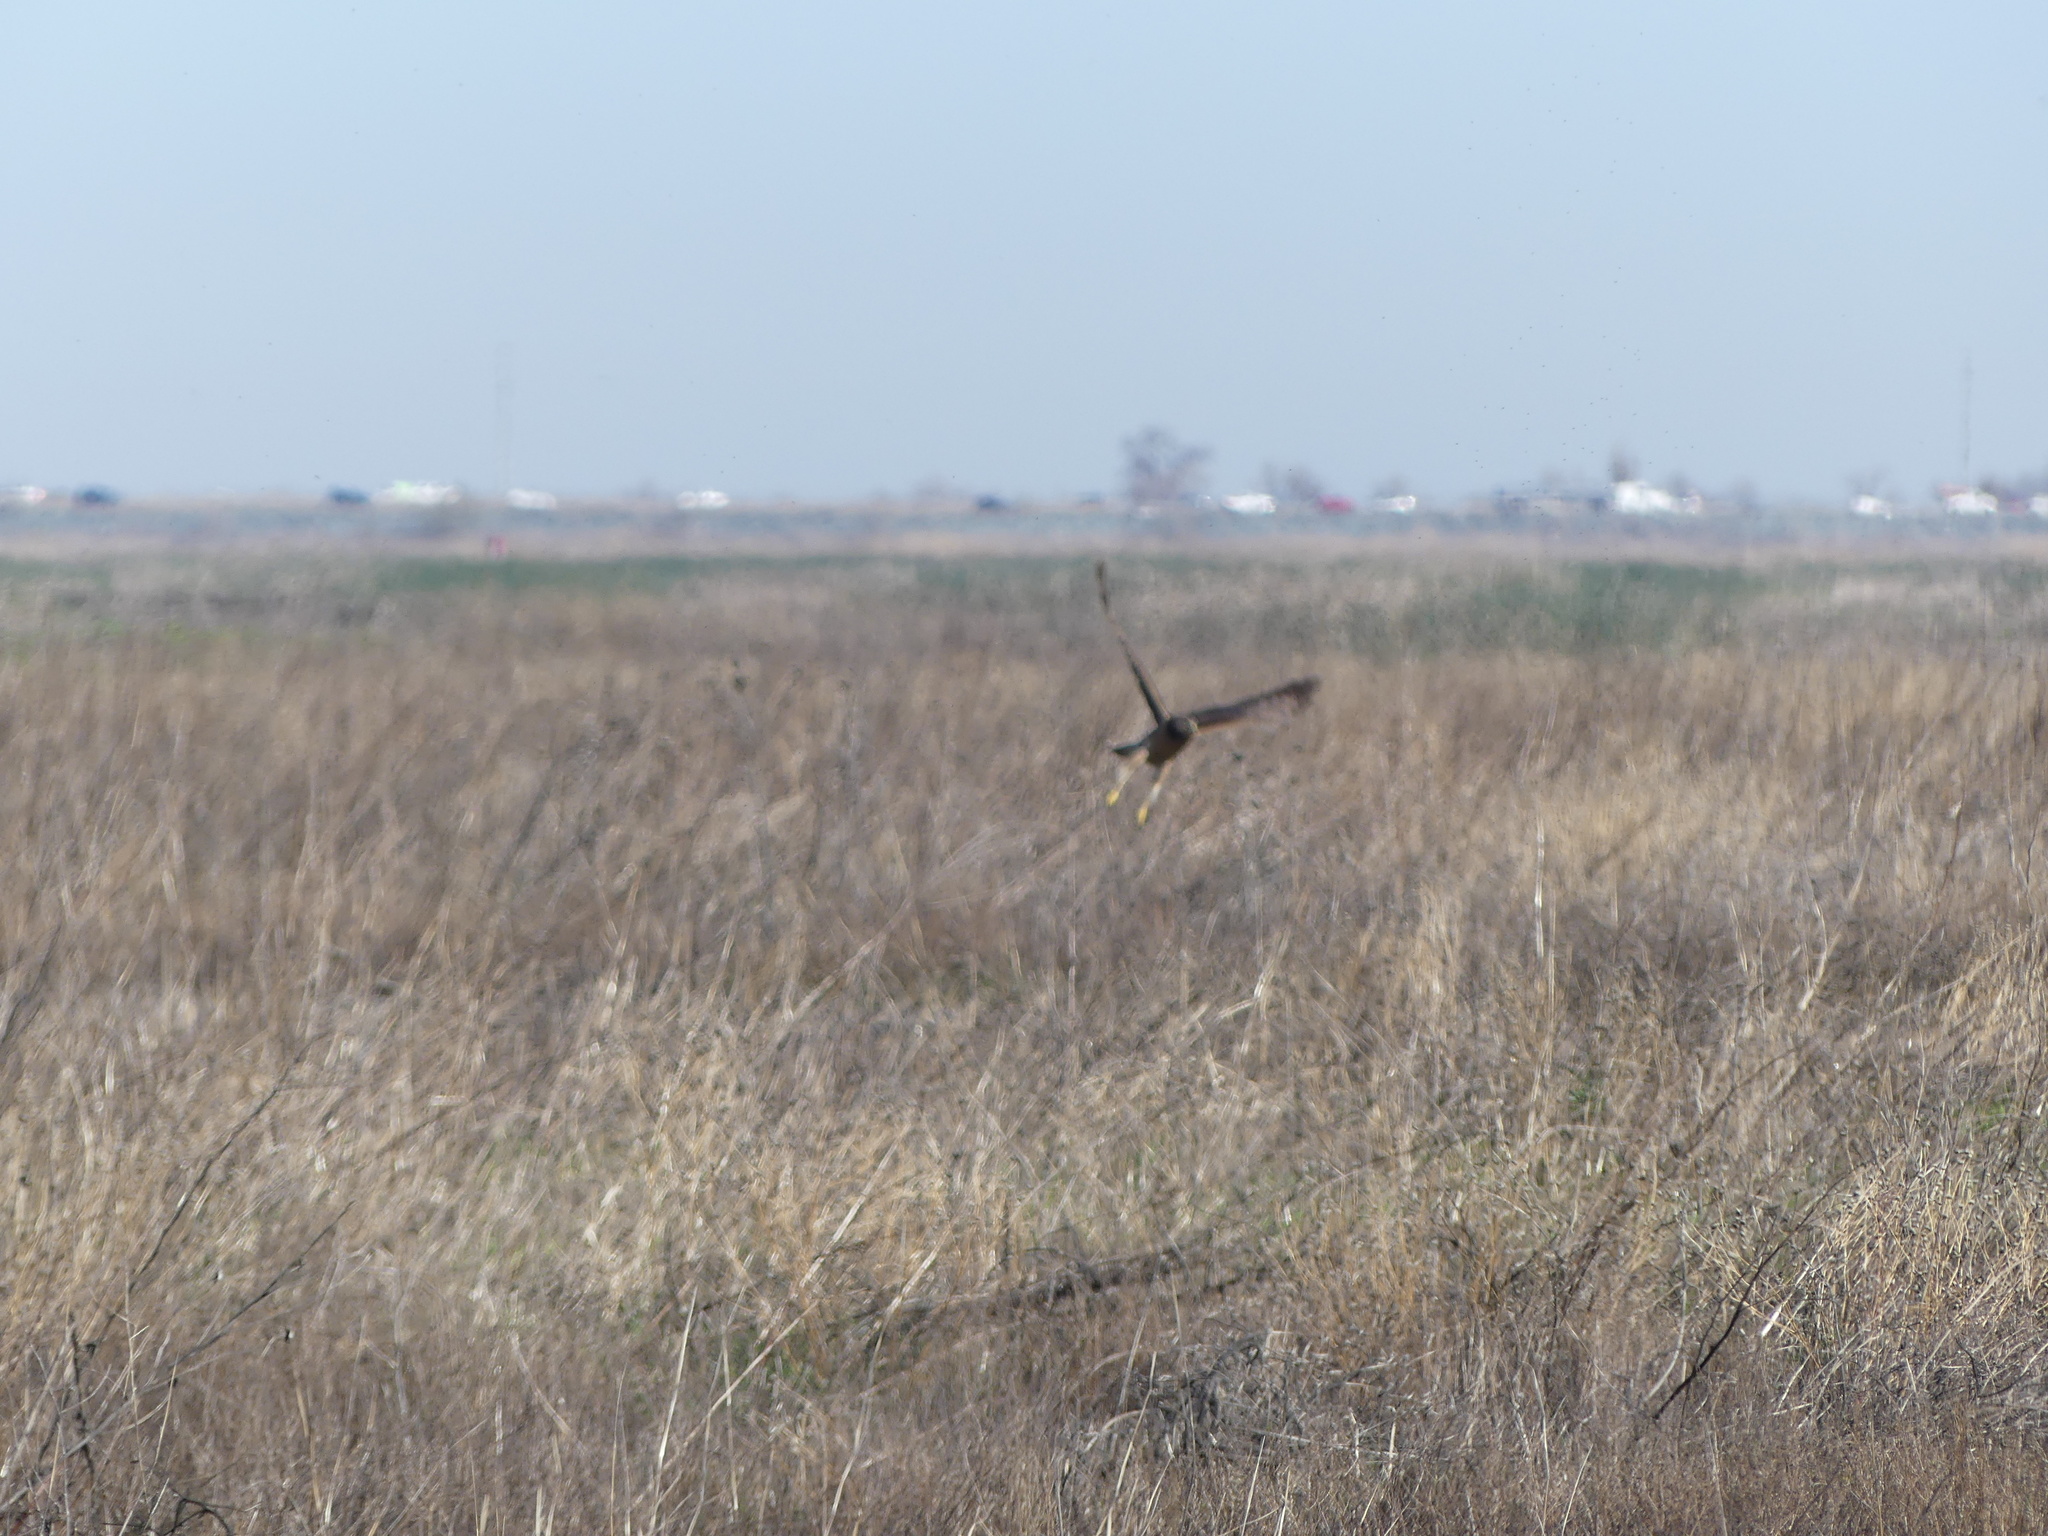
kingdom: Animalia
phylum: Chordata
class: Aves
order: Accipitriformes
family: Accipitridae
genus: Circus
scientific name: Circus cyaneus
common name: Hen harrier
